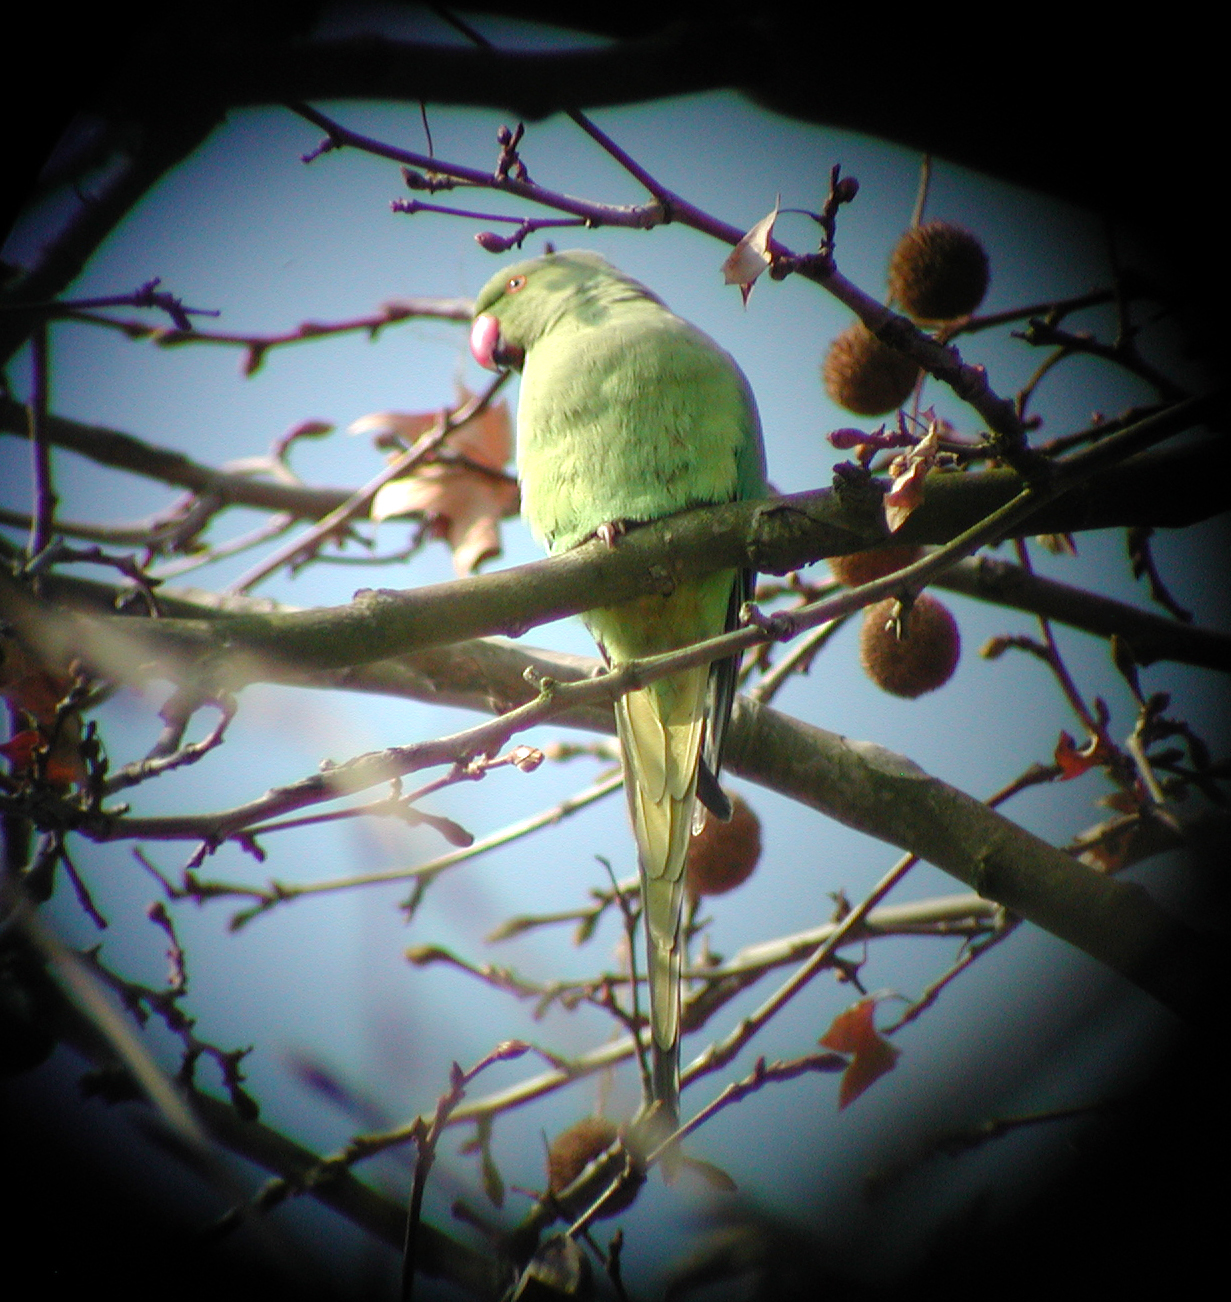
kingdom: Animalia
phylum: Chordata
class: Aves
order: Psittaciformes
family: Psittacidae
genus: Psittacula
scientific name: Psittacula krameri
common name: Rose-ringed parakeet
